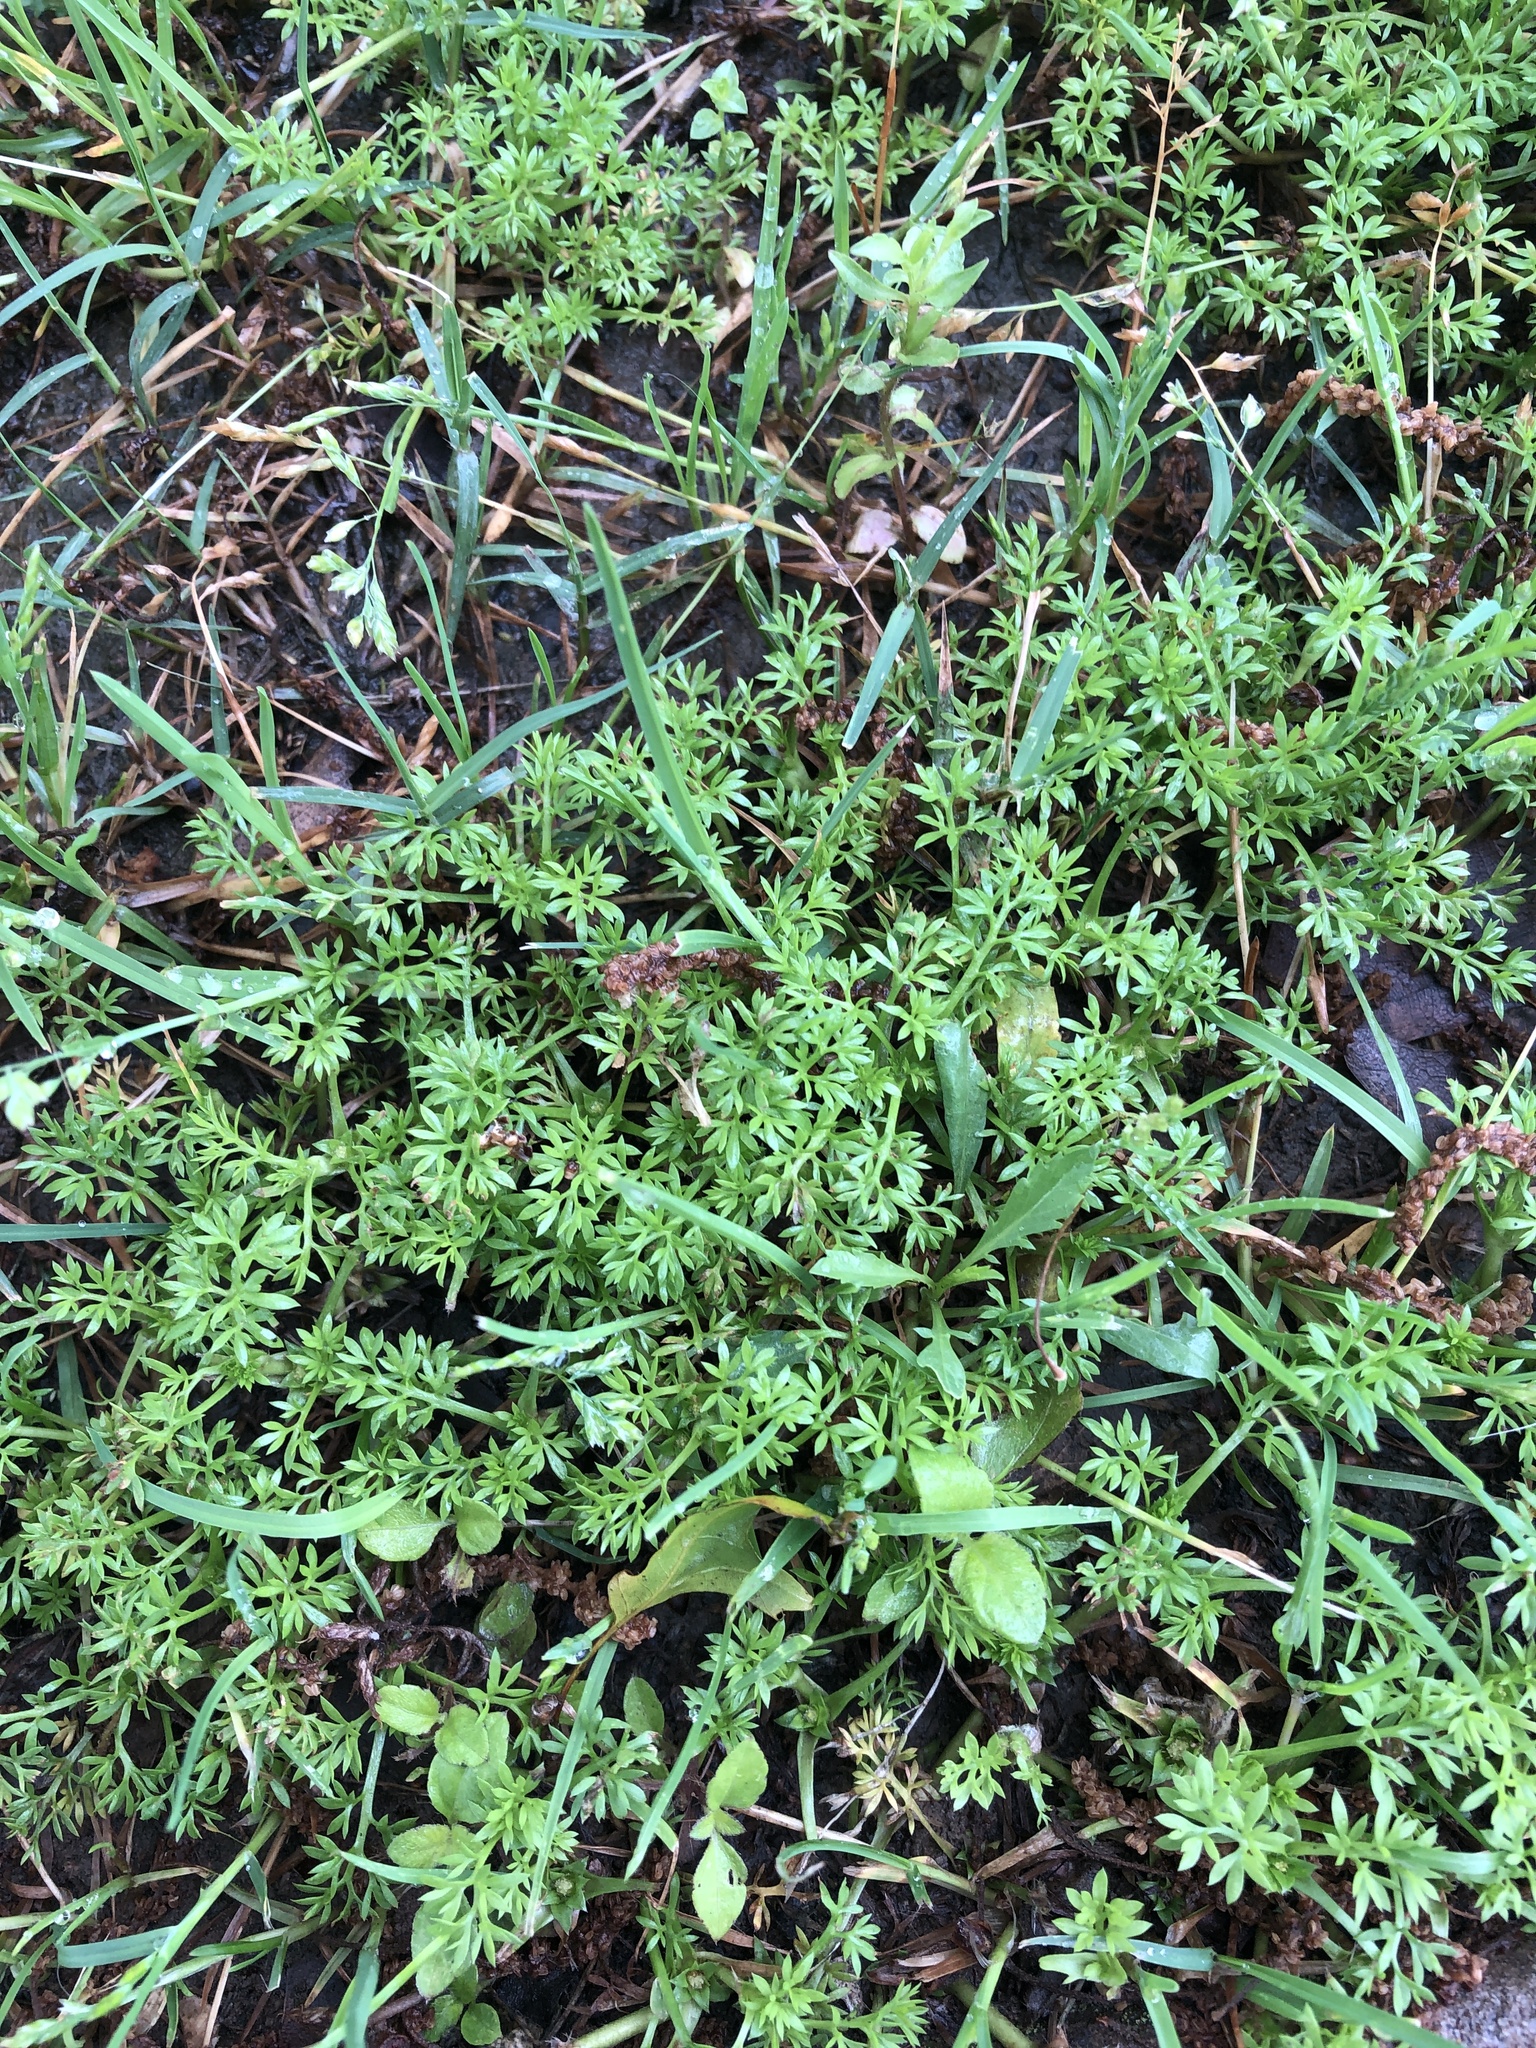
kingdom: Plantae
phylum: Tracheophyta
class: Magnoliopsida
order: Asterales
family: Asteraceae
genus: Soliva
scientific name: Soliva sessilis
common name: Field burrweed
